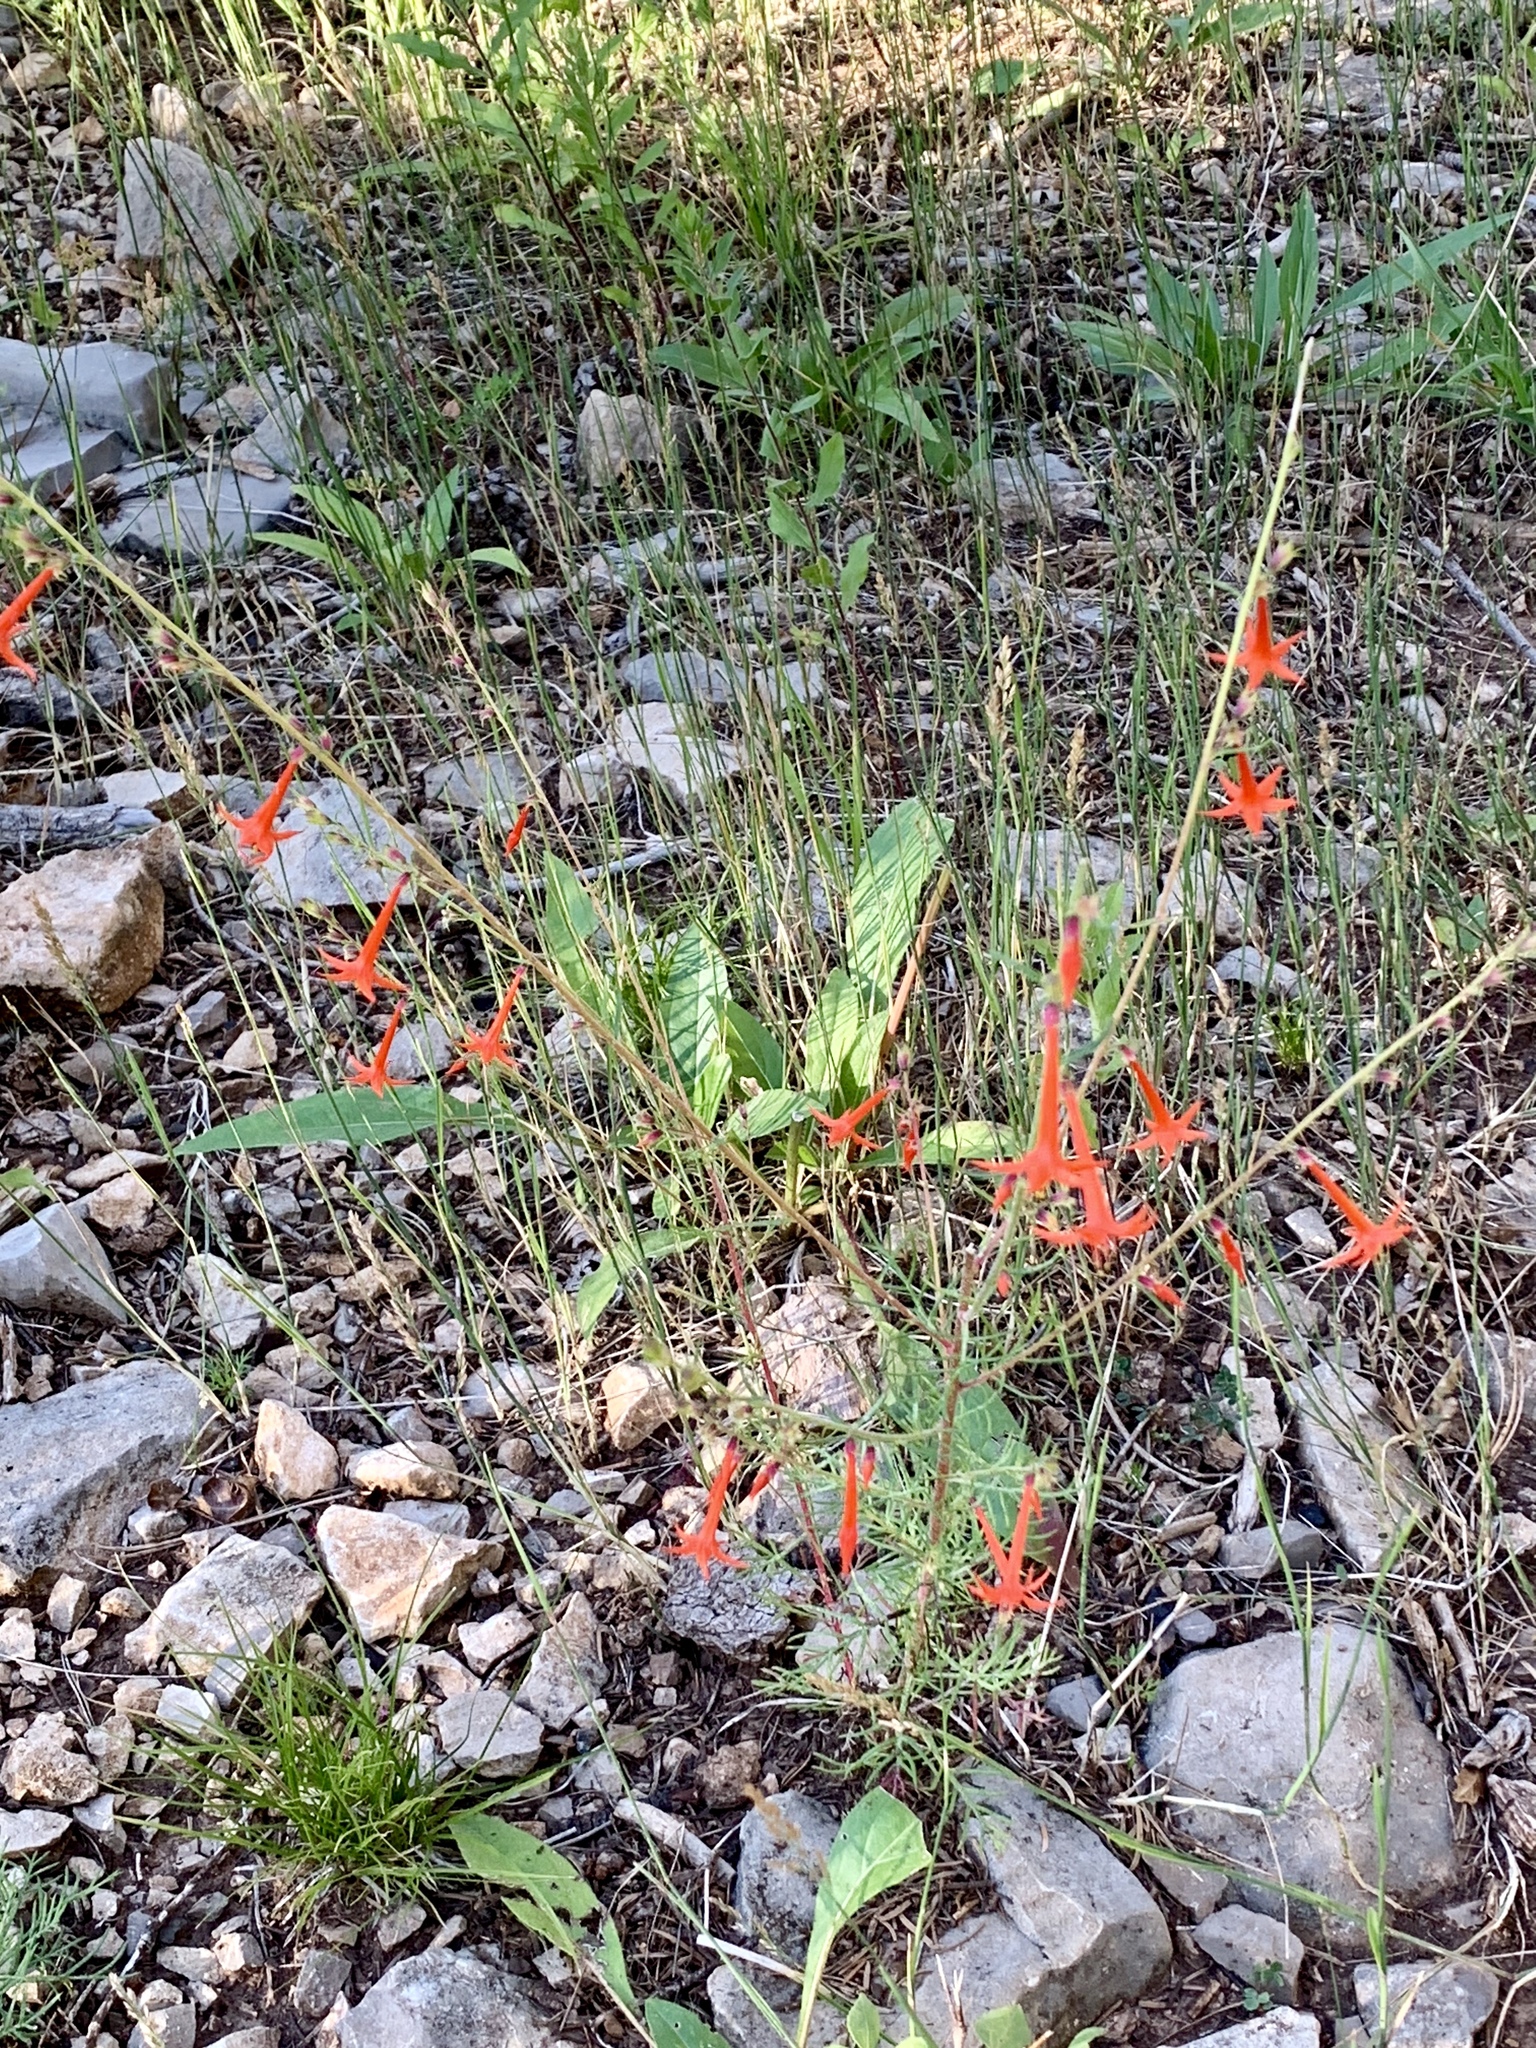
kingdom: Plantae
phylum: Tracheophyta
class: Magnoliopsida
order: Ericales
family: Polemoniaceae
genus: Ipomopsis
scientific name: Ipomopsis aggregata
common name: Scarlet gilia
